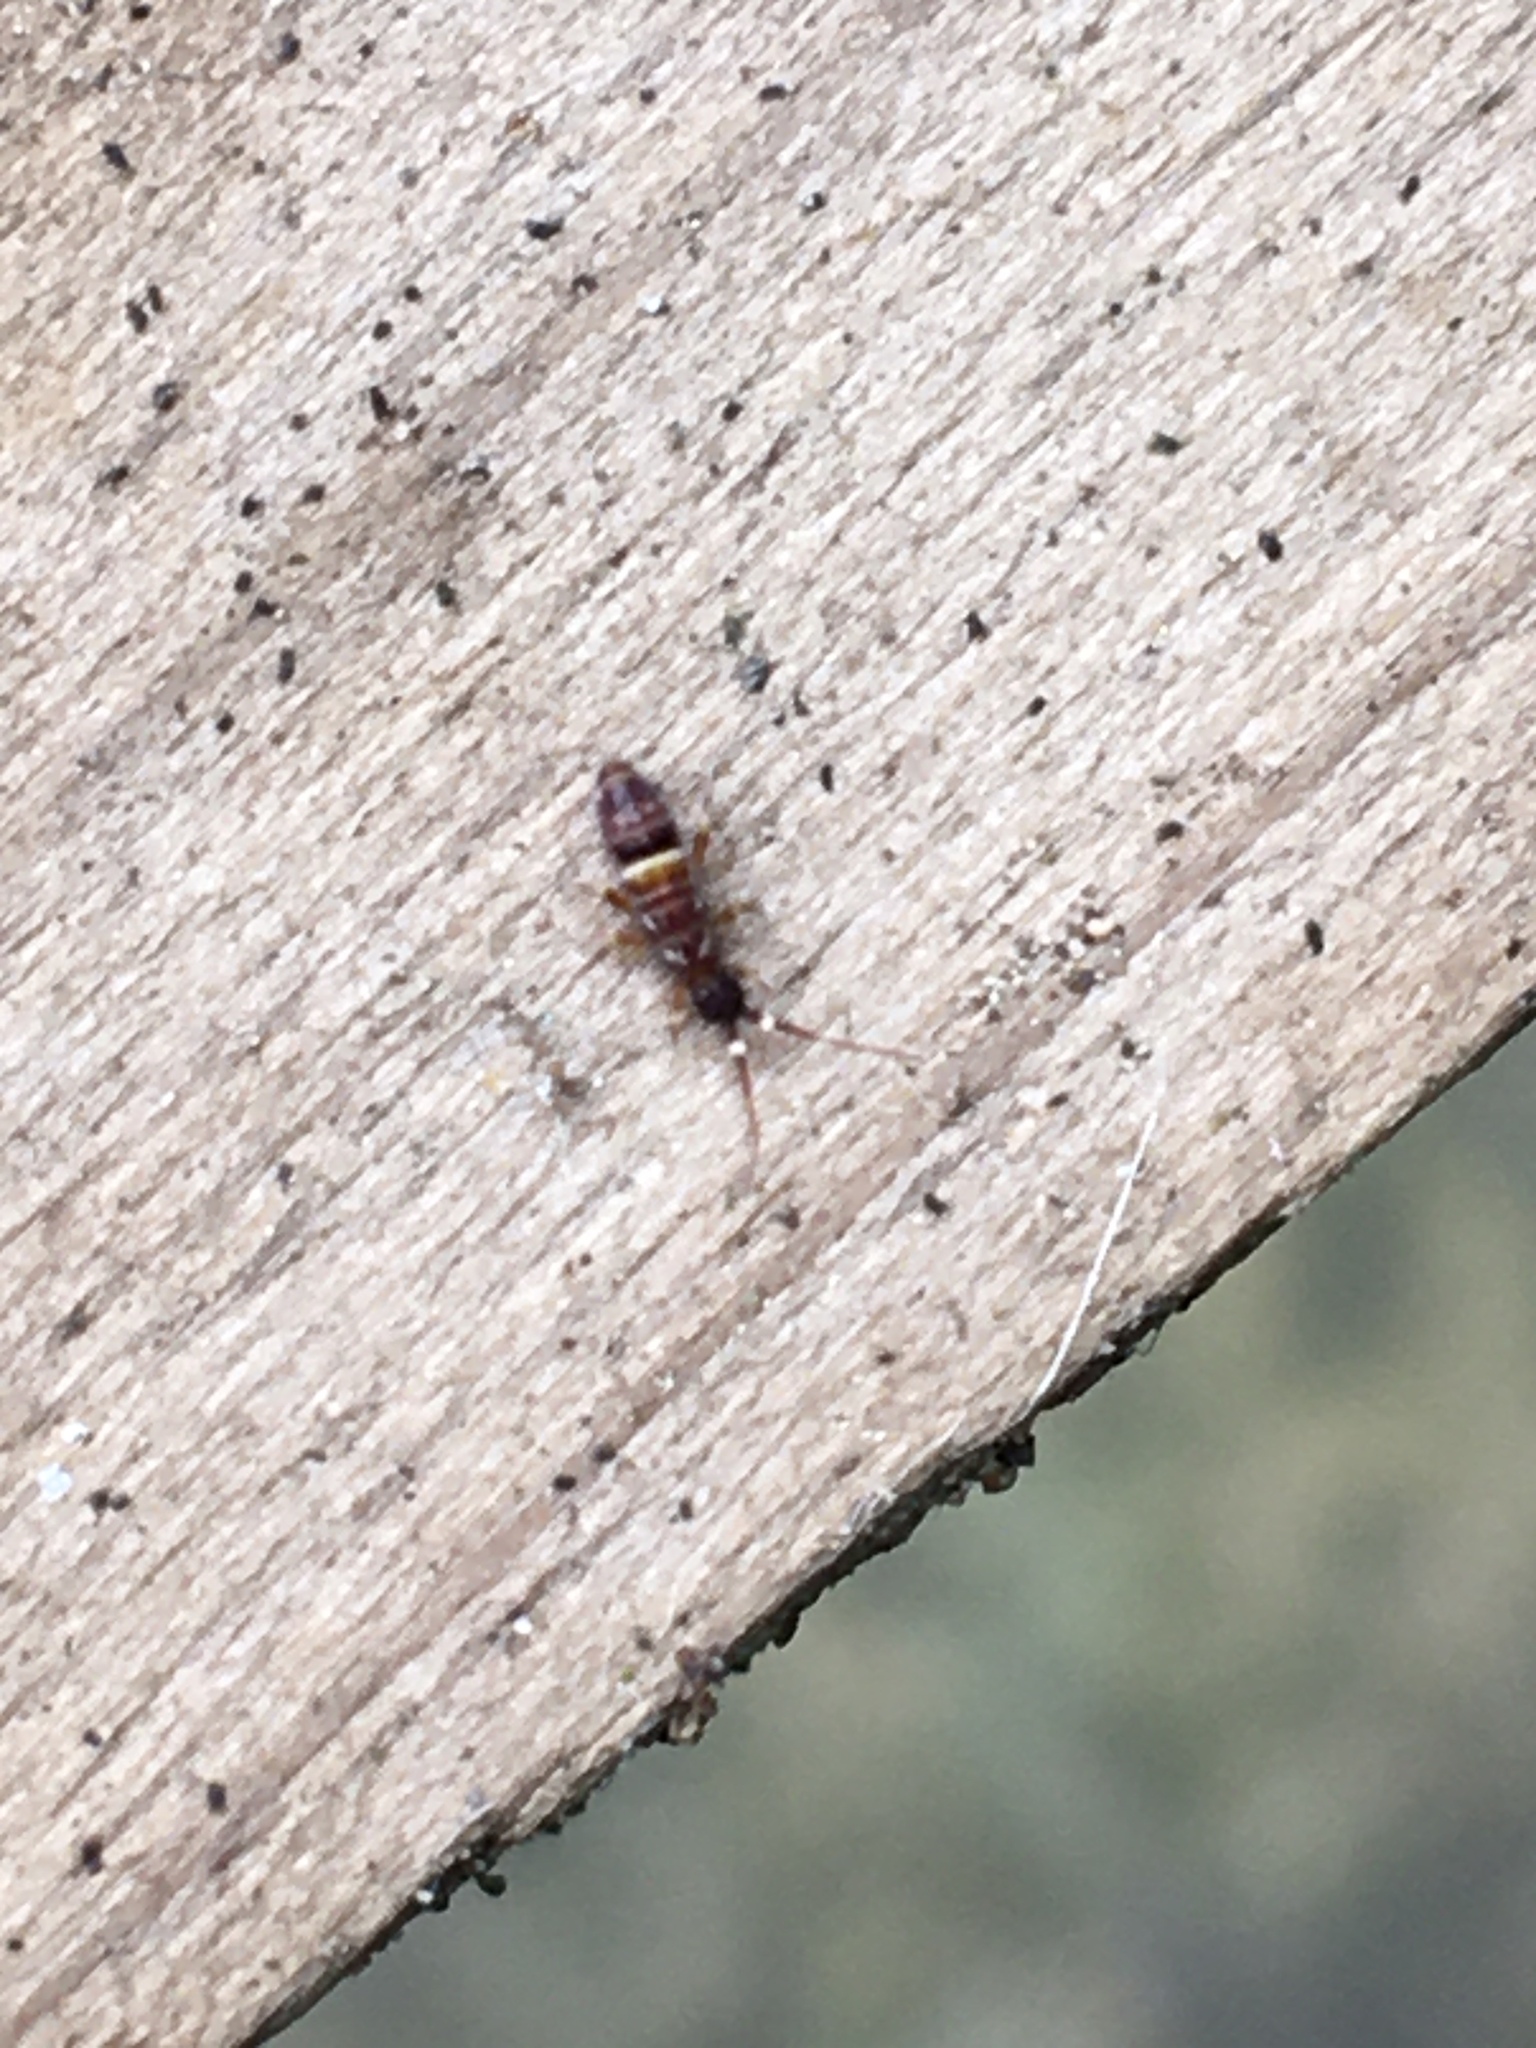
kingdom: Animalia
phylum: Arthropoda
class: Collembola
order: Entomobryomorpha
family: Orchesellidae
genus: Orchesella
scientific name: Orchesella cincta
